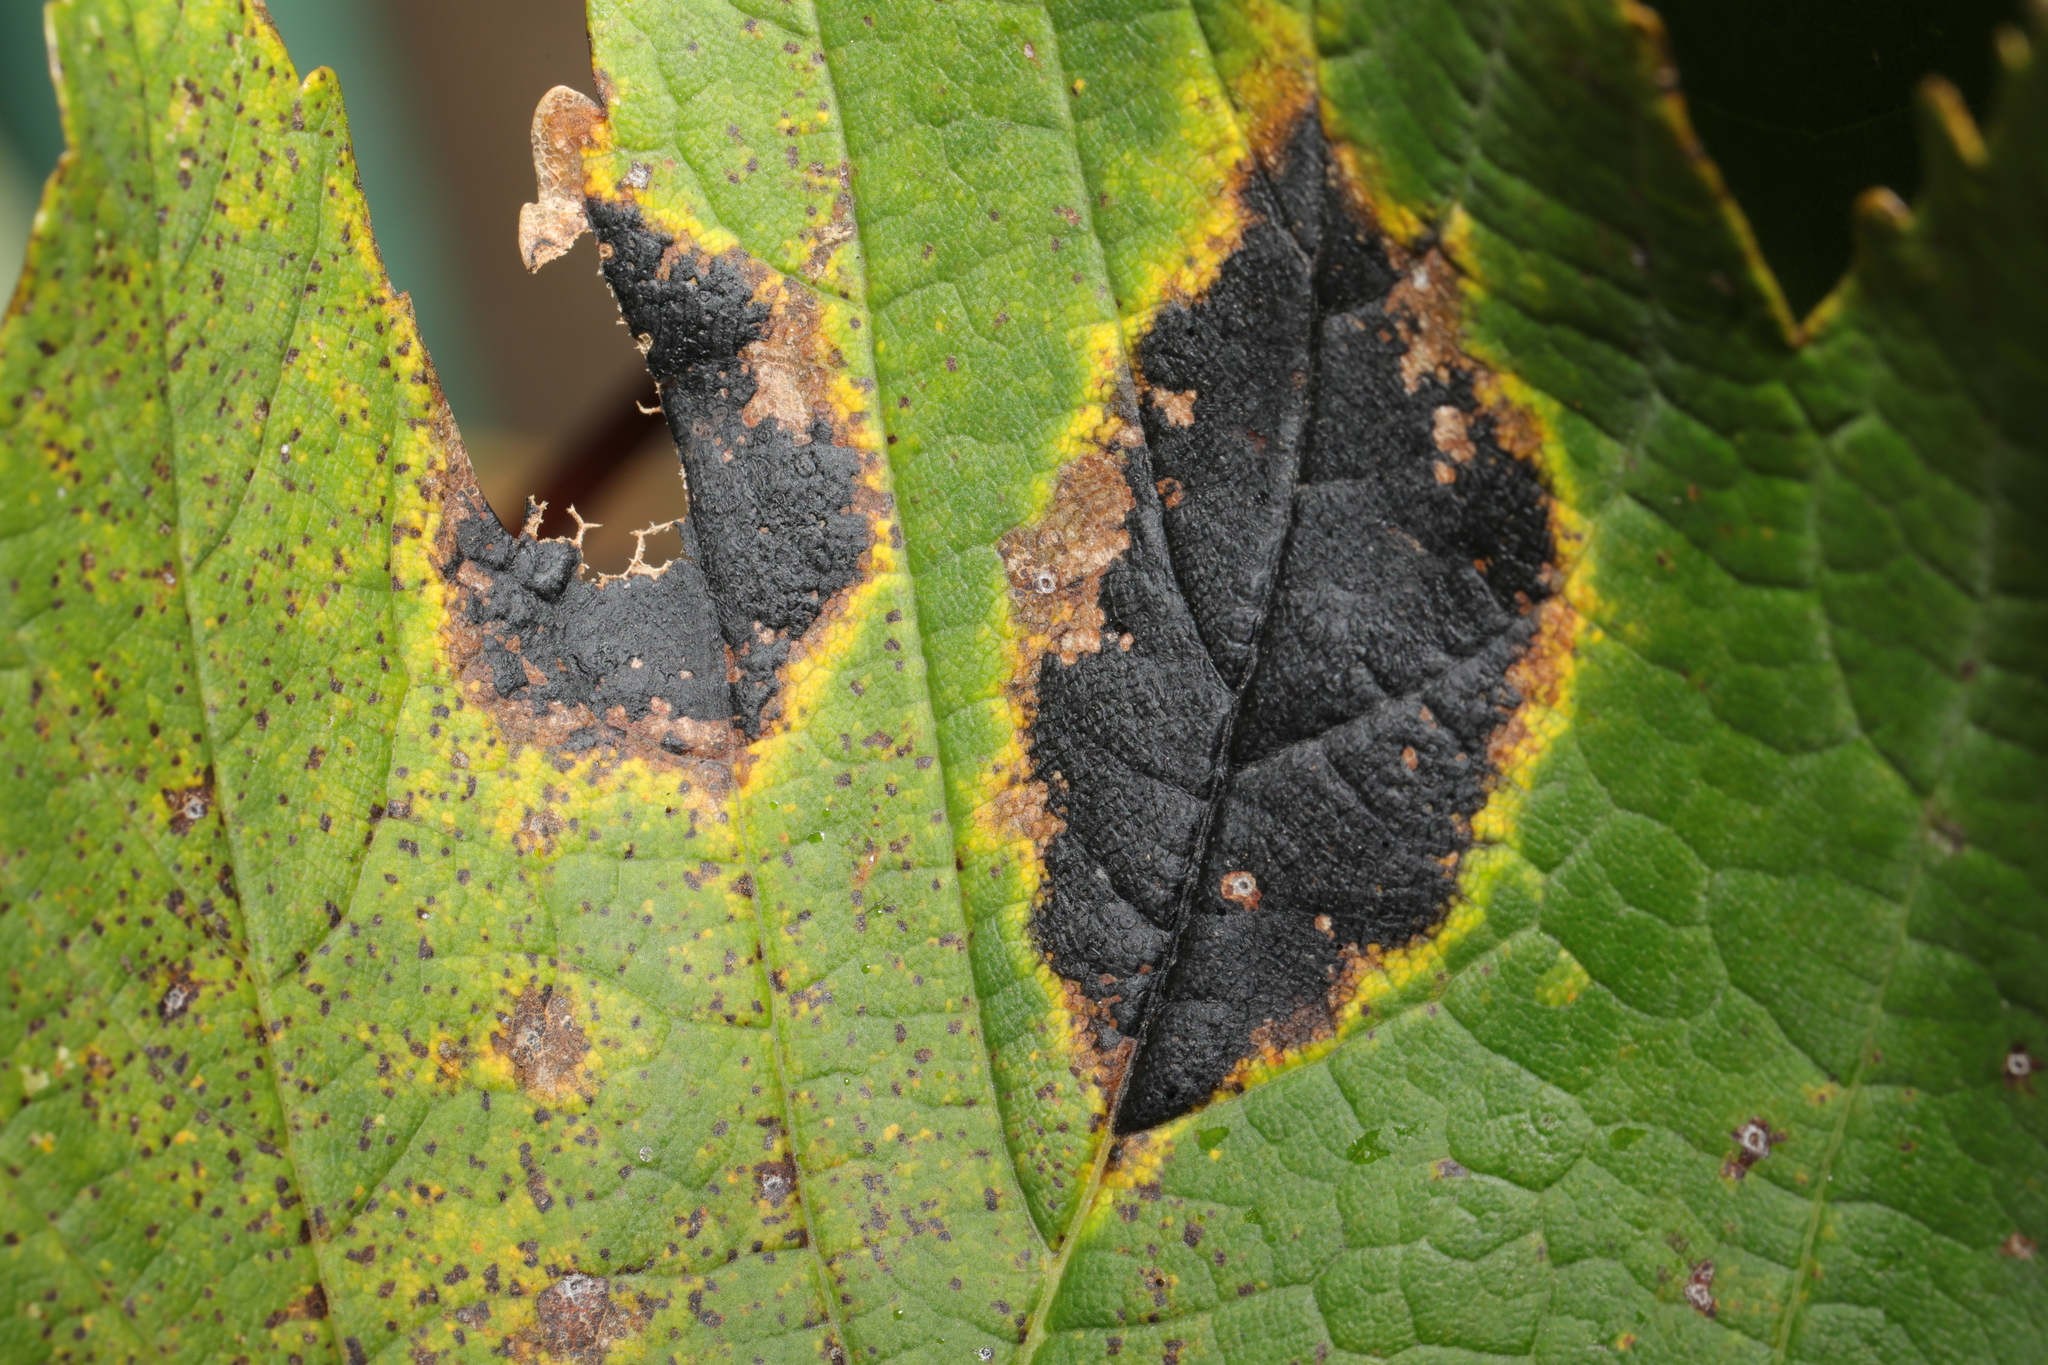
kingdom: Fungi
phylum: Ascomycota
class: Leotiomycetes
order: Rhytismatales
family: Rhytismataceae
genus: Rhytisma
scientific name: Rhytisma acerinum
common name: European tar spot
